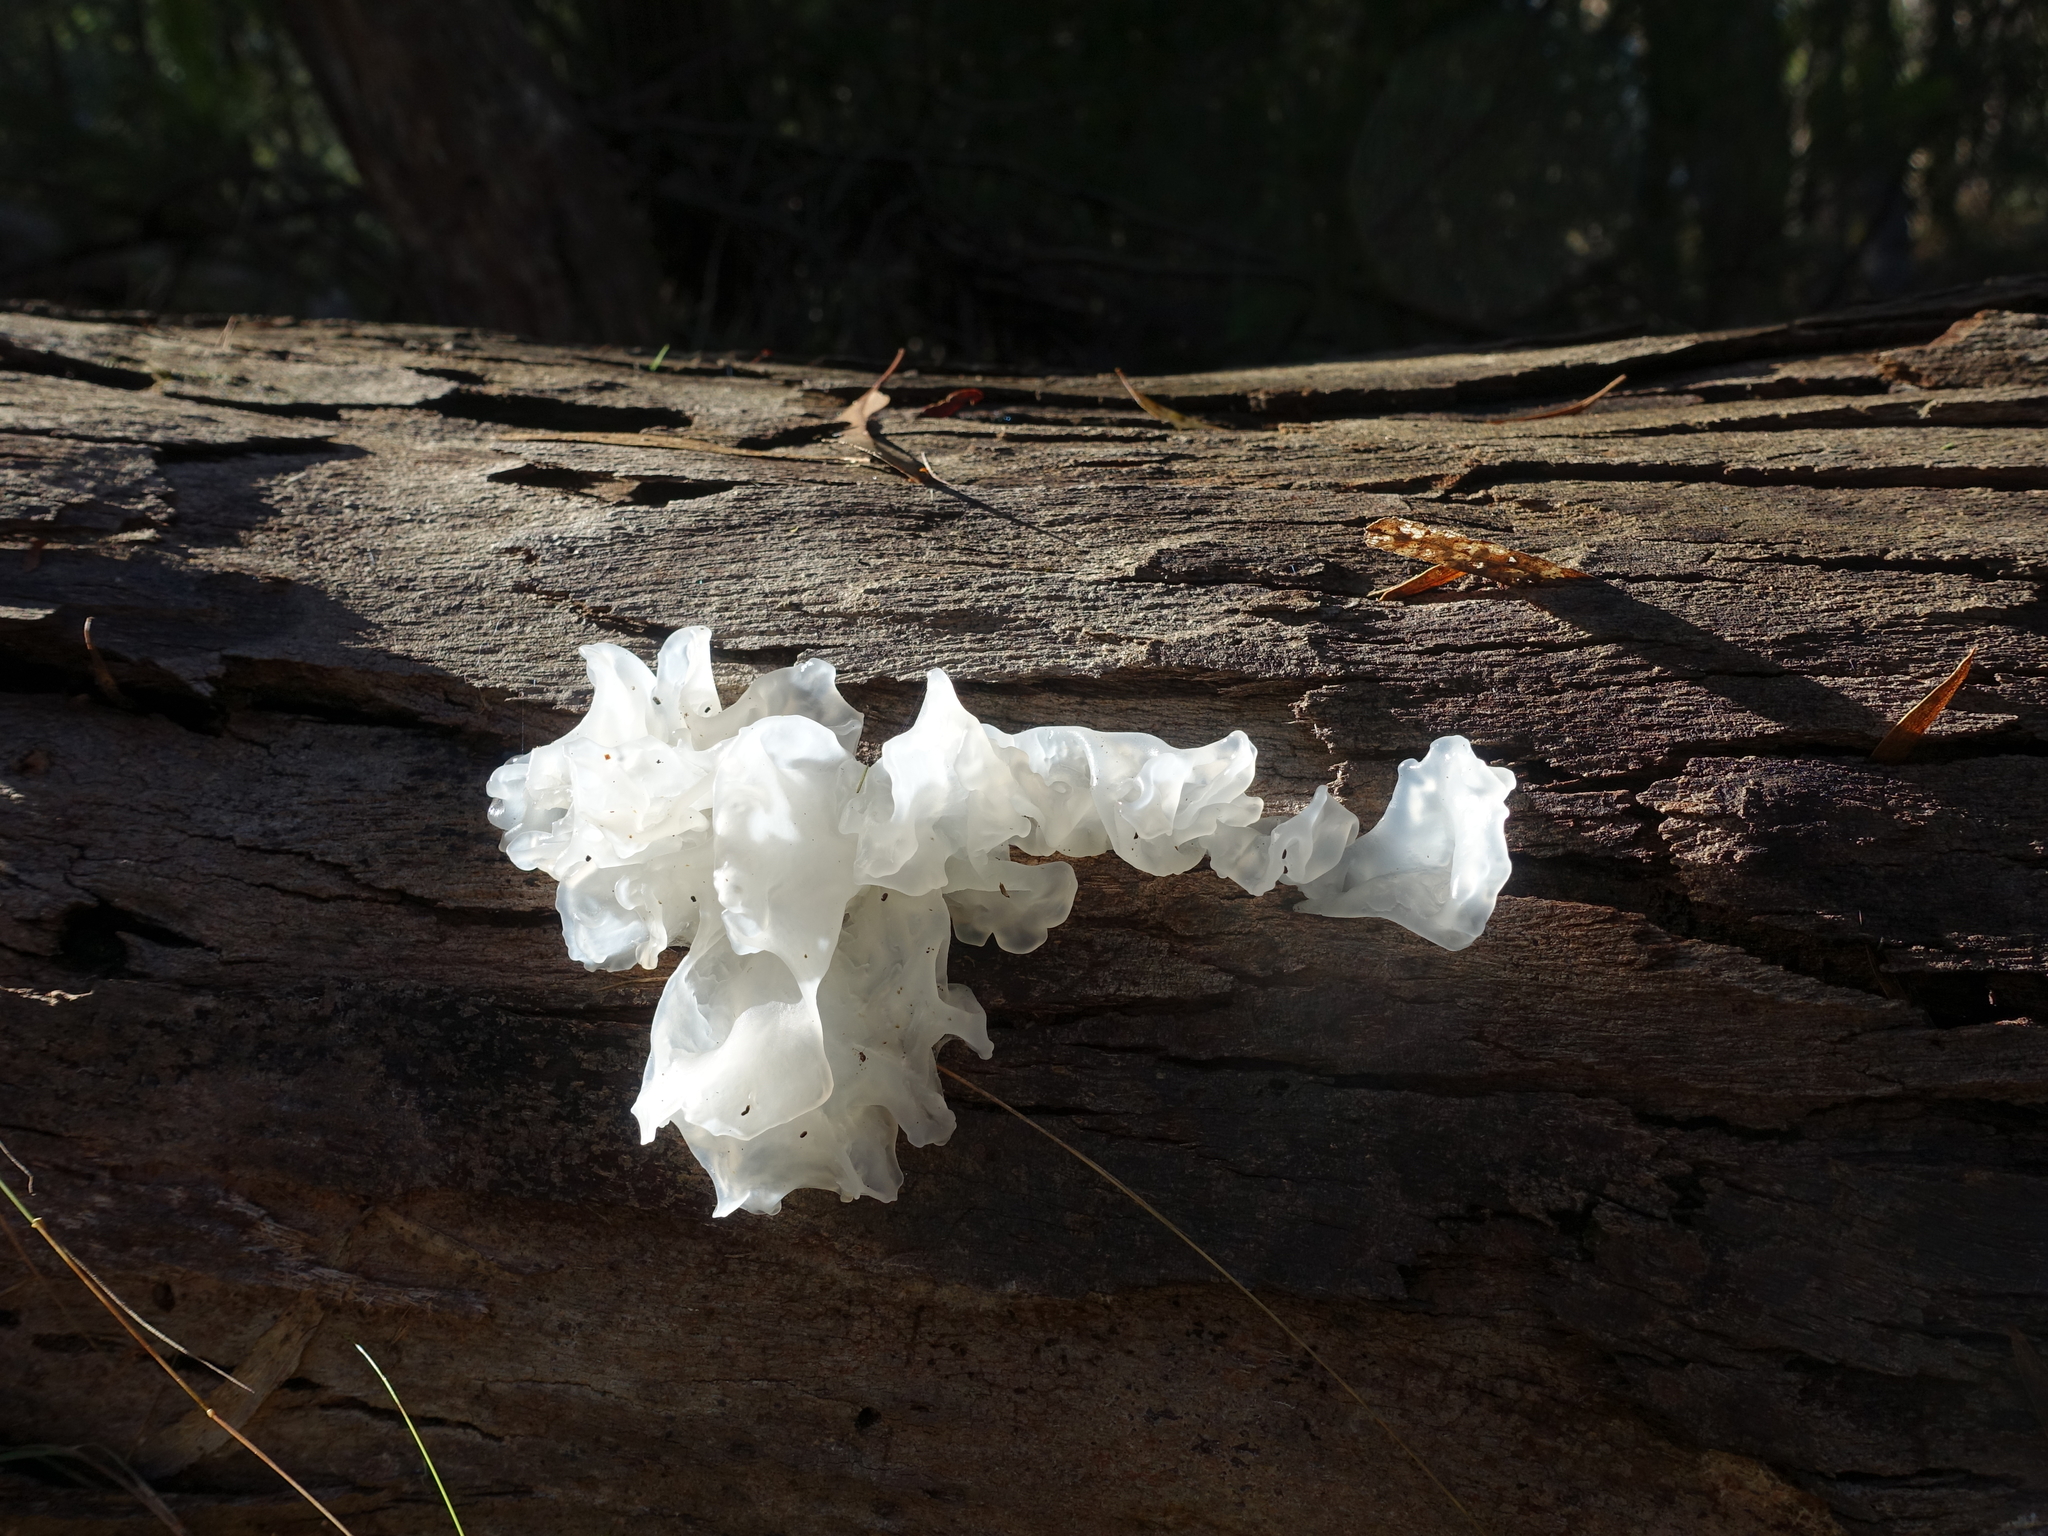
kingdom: Fungi
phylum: Basidiomycota
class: Tremellomycetes
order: Tremellales
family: Tremellaceae
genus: Tremella
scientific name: Tremella fuciformis
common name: Snow fungus
